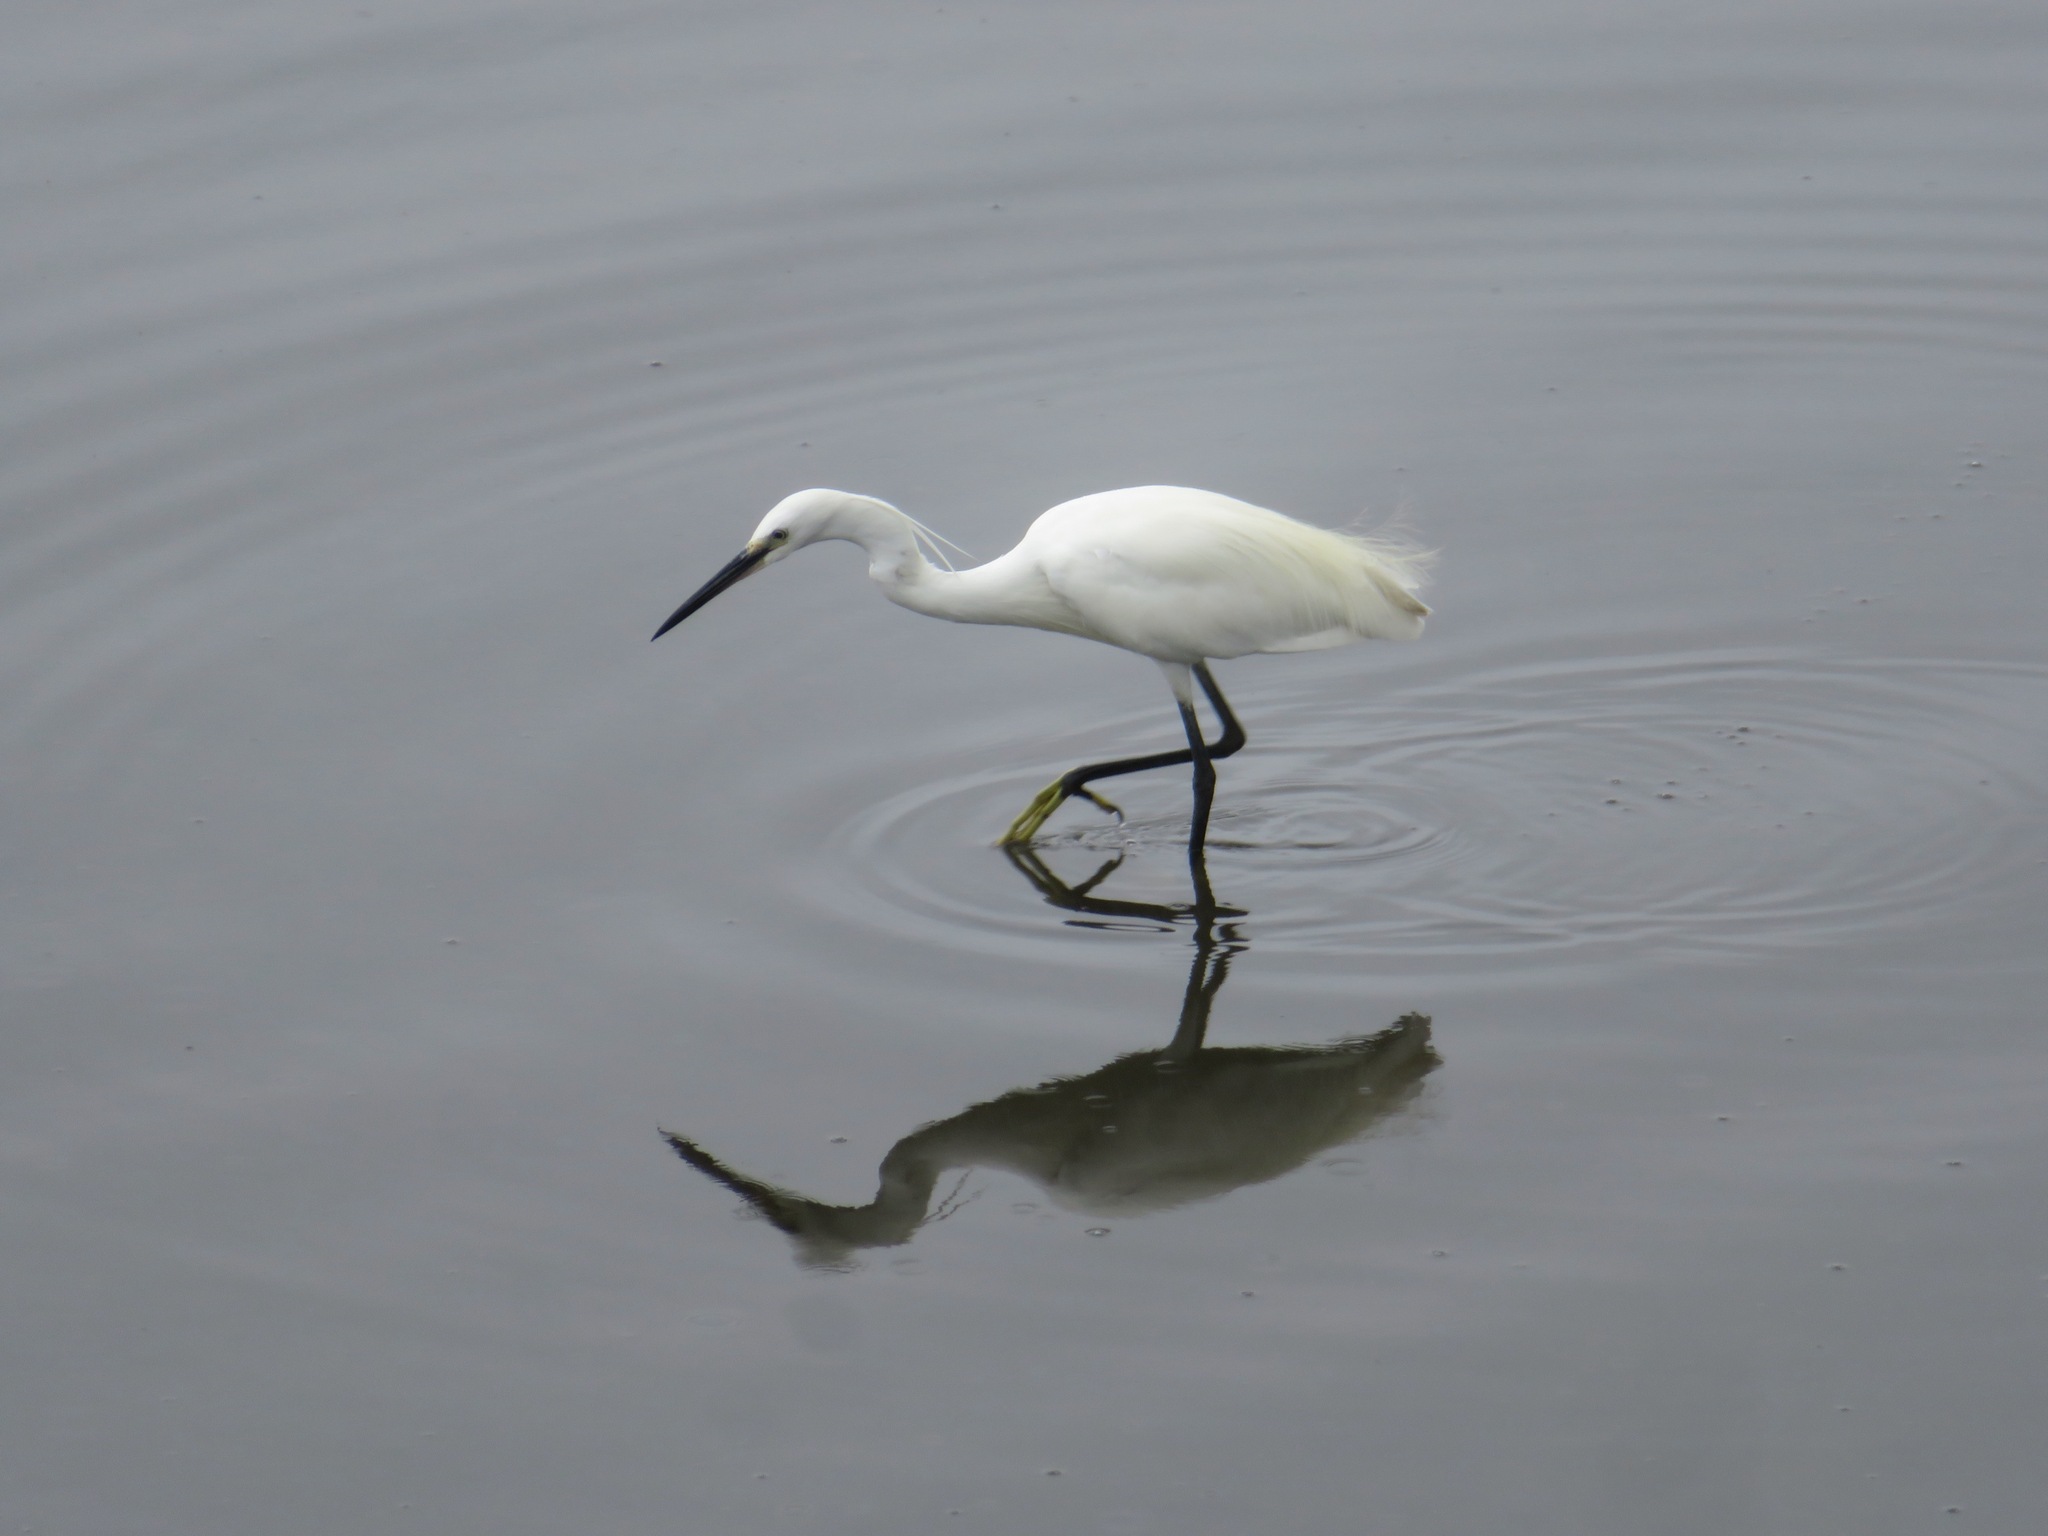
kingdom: Animalia
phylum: Chordata
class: Aves
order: Pelecaniformes
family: Ardeidae
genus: Egretta
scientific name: Egretta garzetta
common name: Little egret
